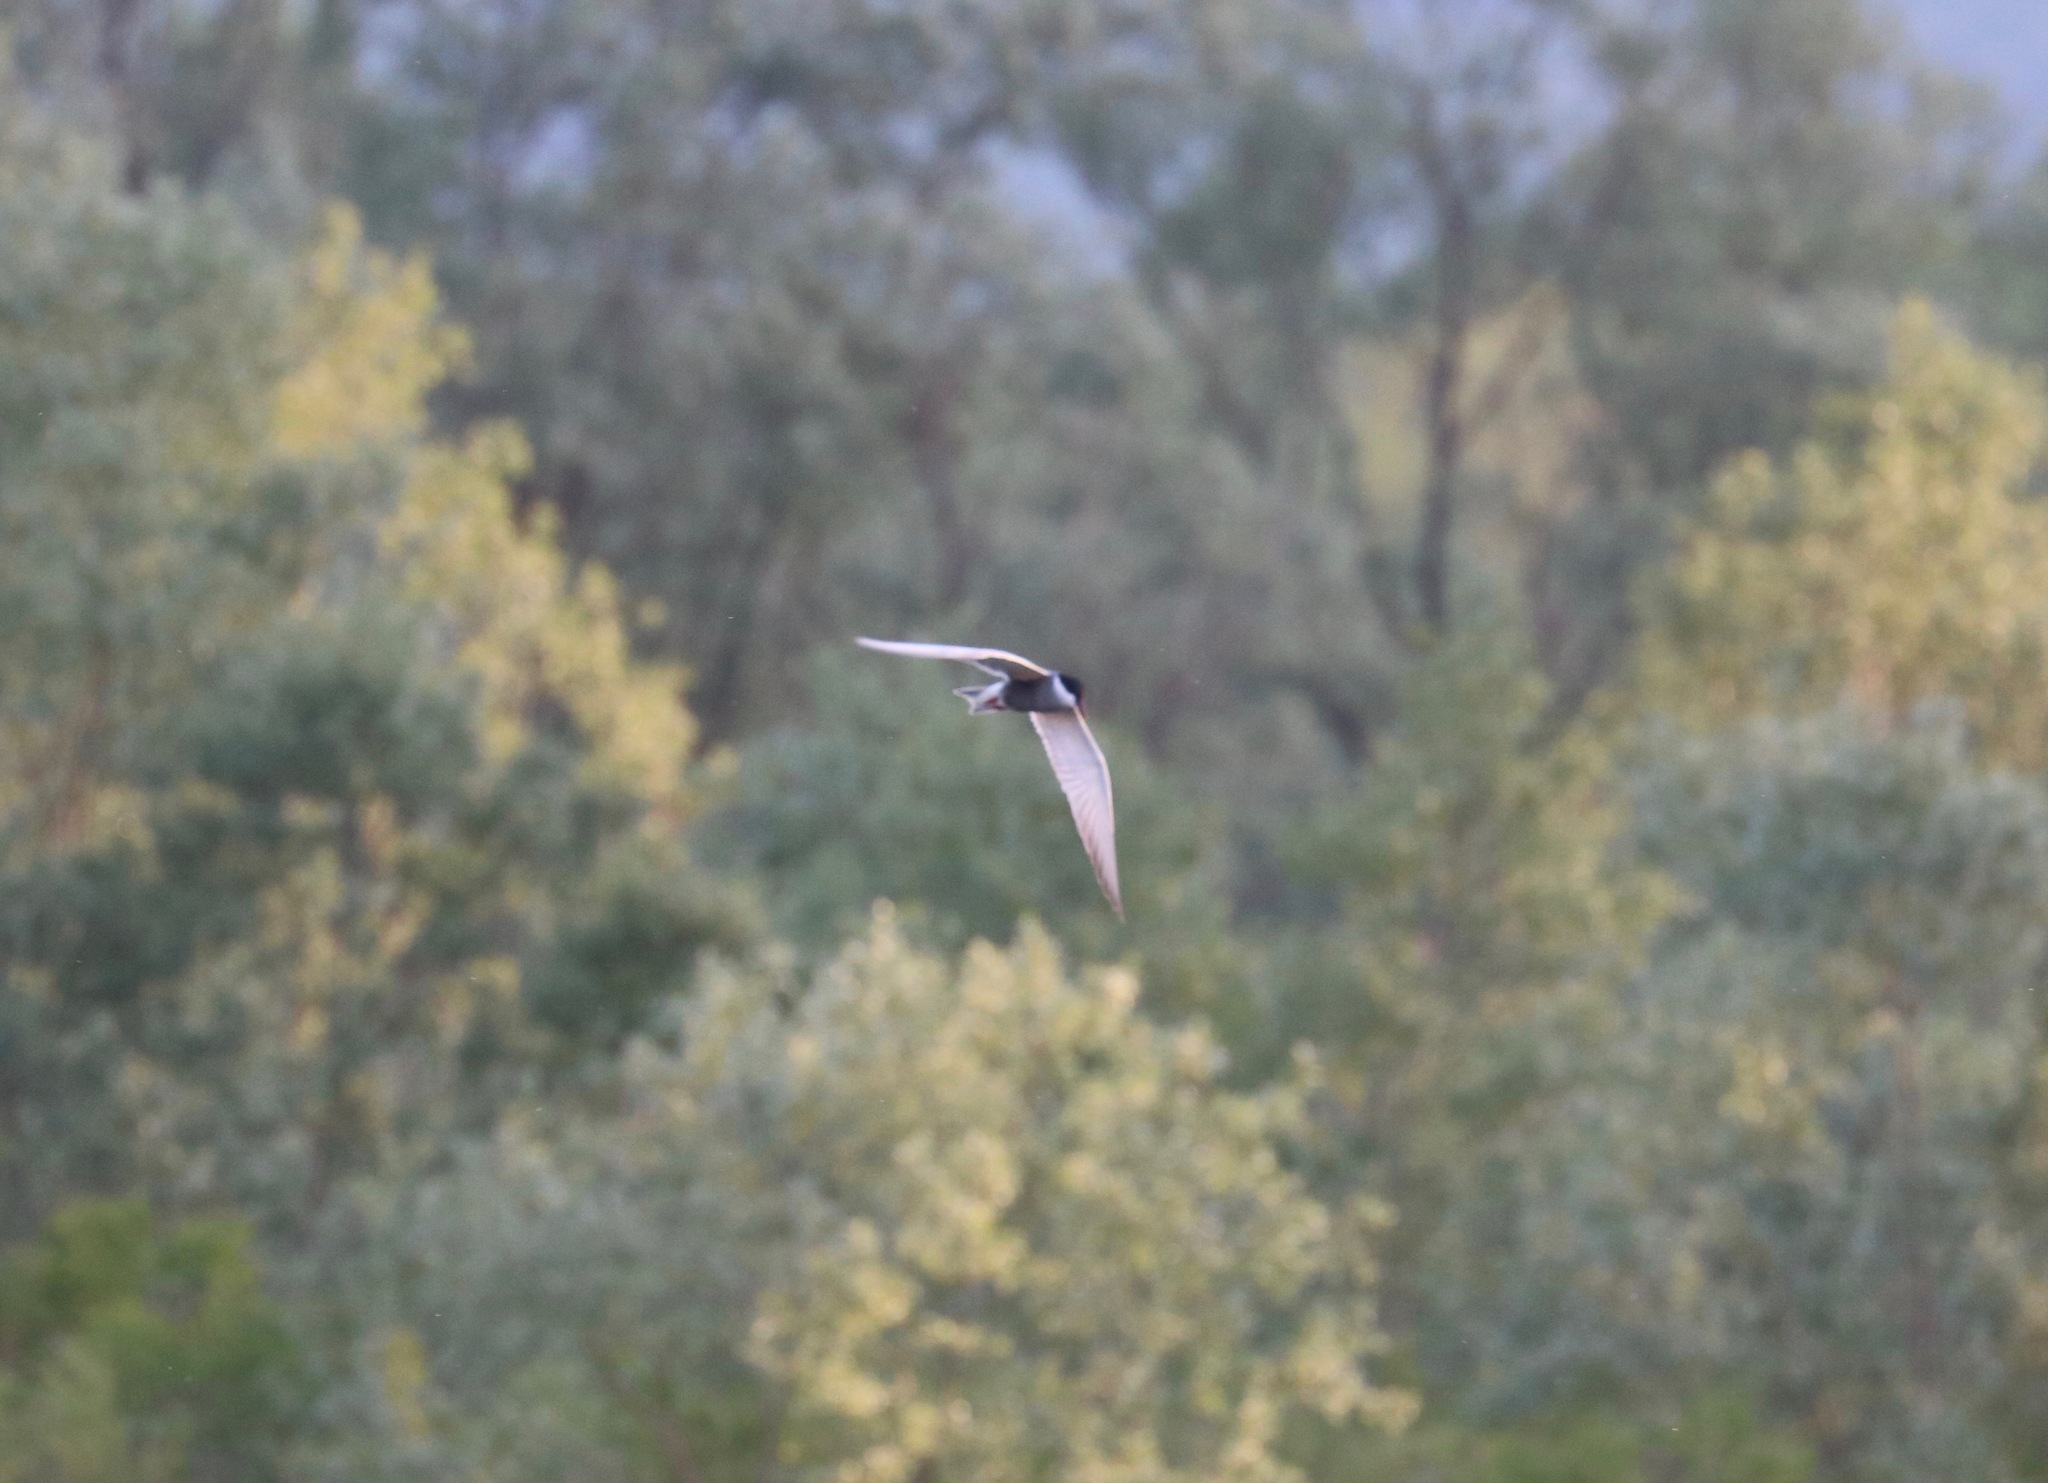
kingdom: Animalia
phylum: Chordata
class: Aves
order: Charadriiformes
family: Laridae
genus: Chlidonias
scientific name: Chlidonias hybrida
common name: Whiskered tern
